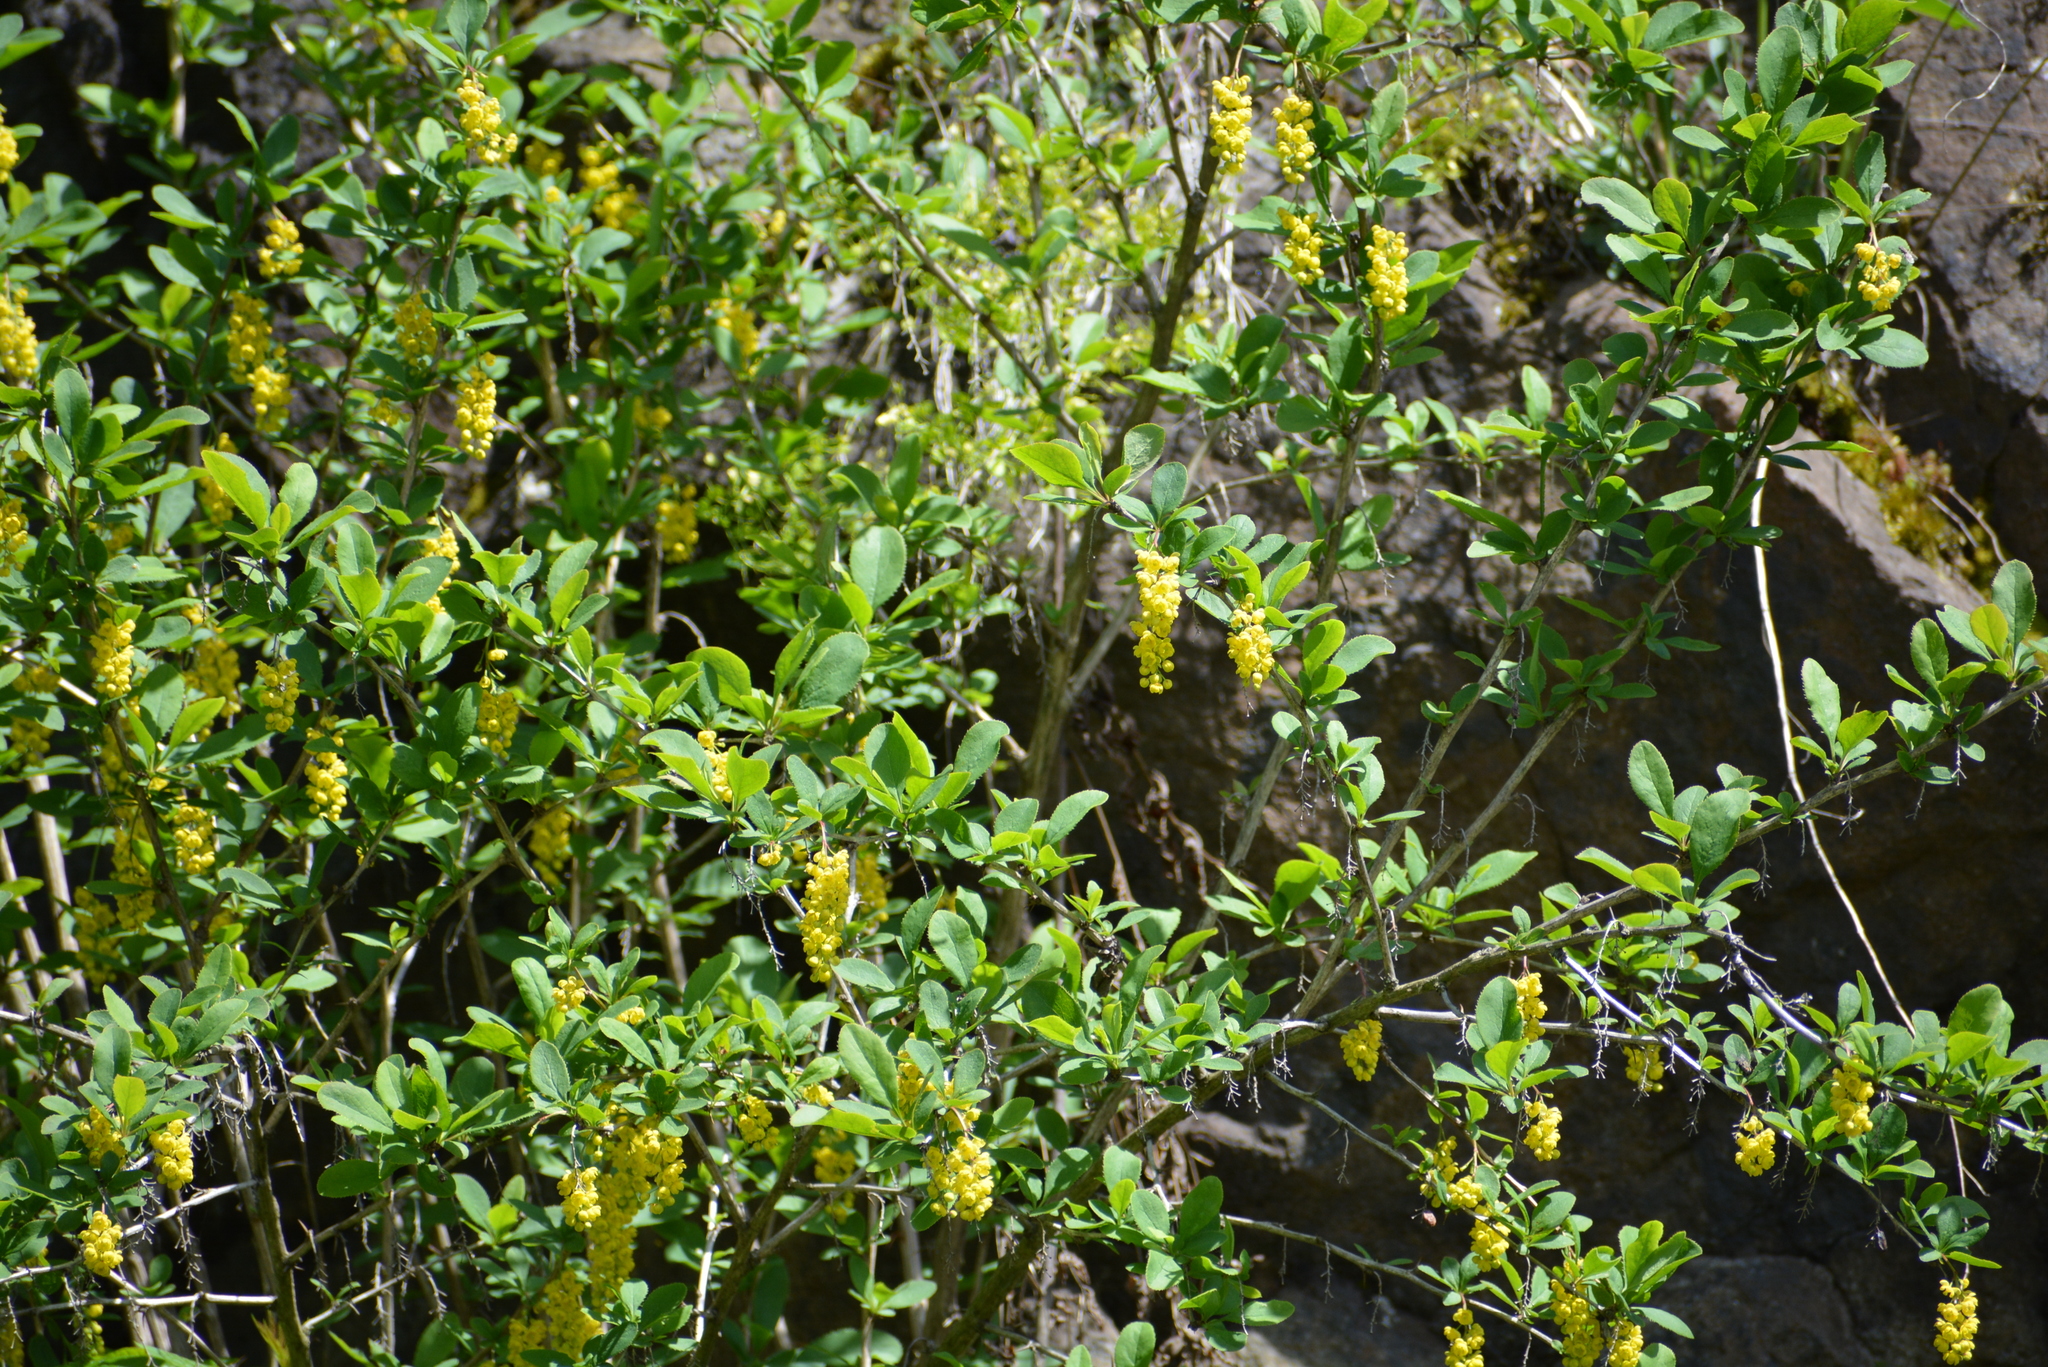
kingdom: Plantae
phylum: Tracheophyta
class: Magnoliopsida
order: Ranunculales
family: Berberidaceae
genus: Berberis
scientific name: Berberis vulgaris
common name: Barberry
